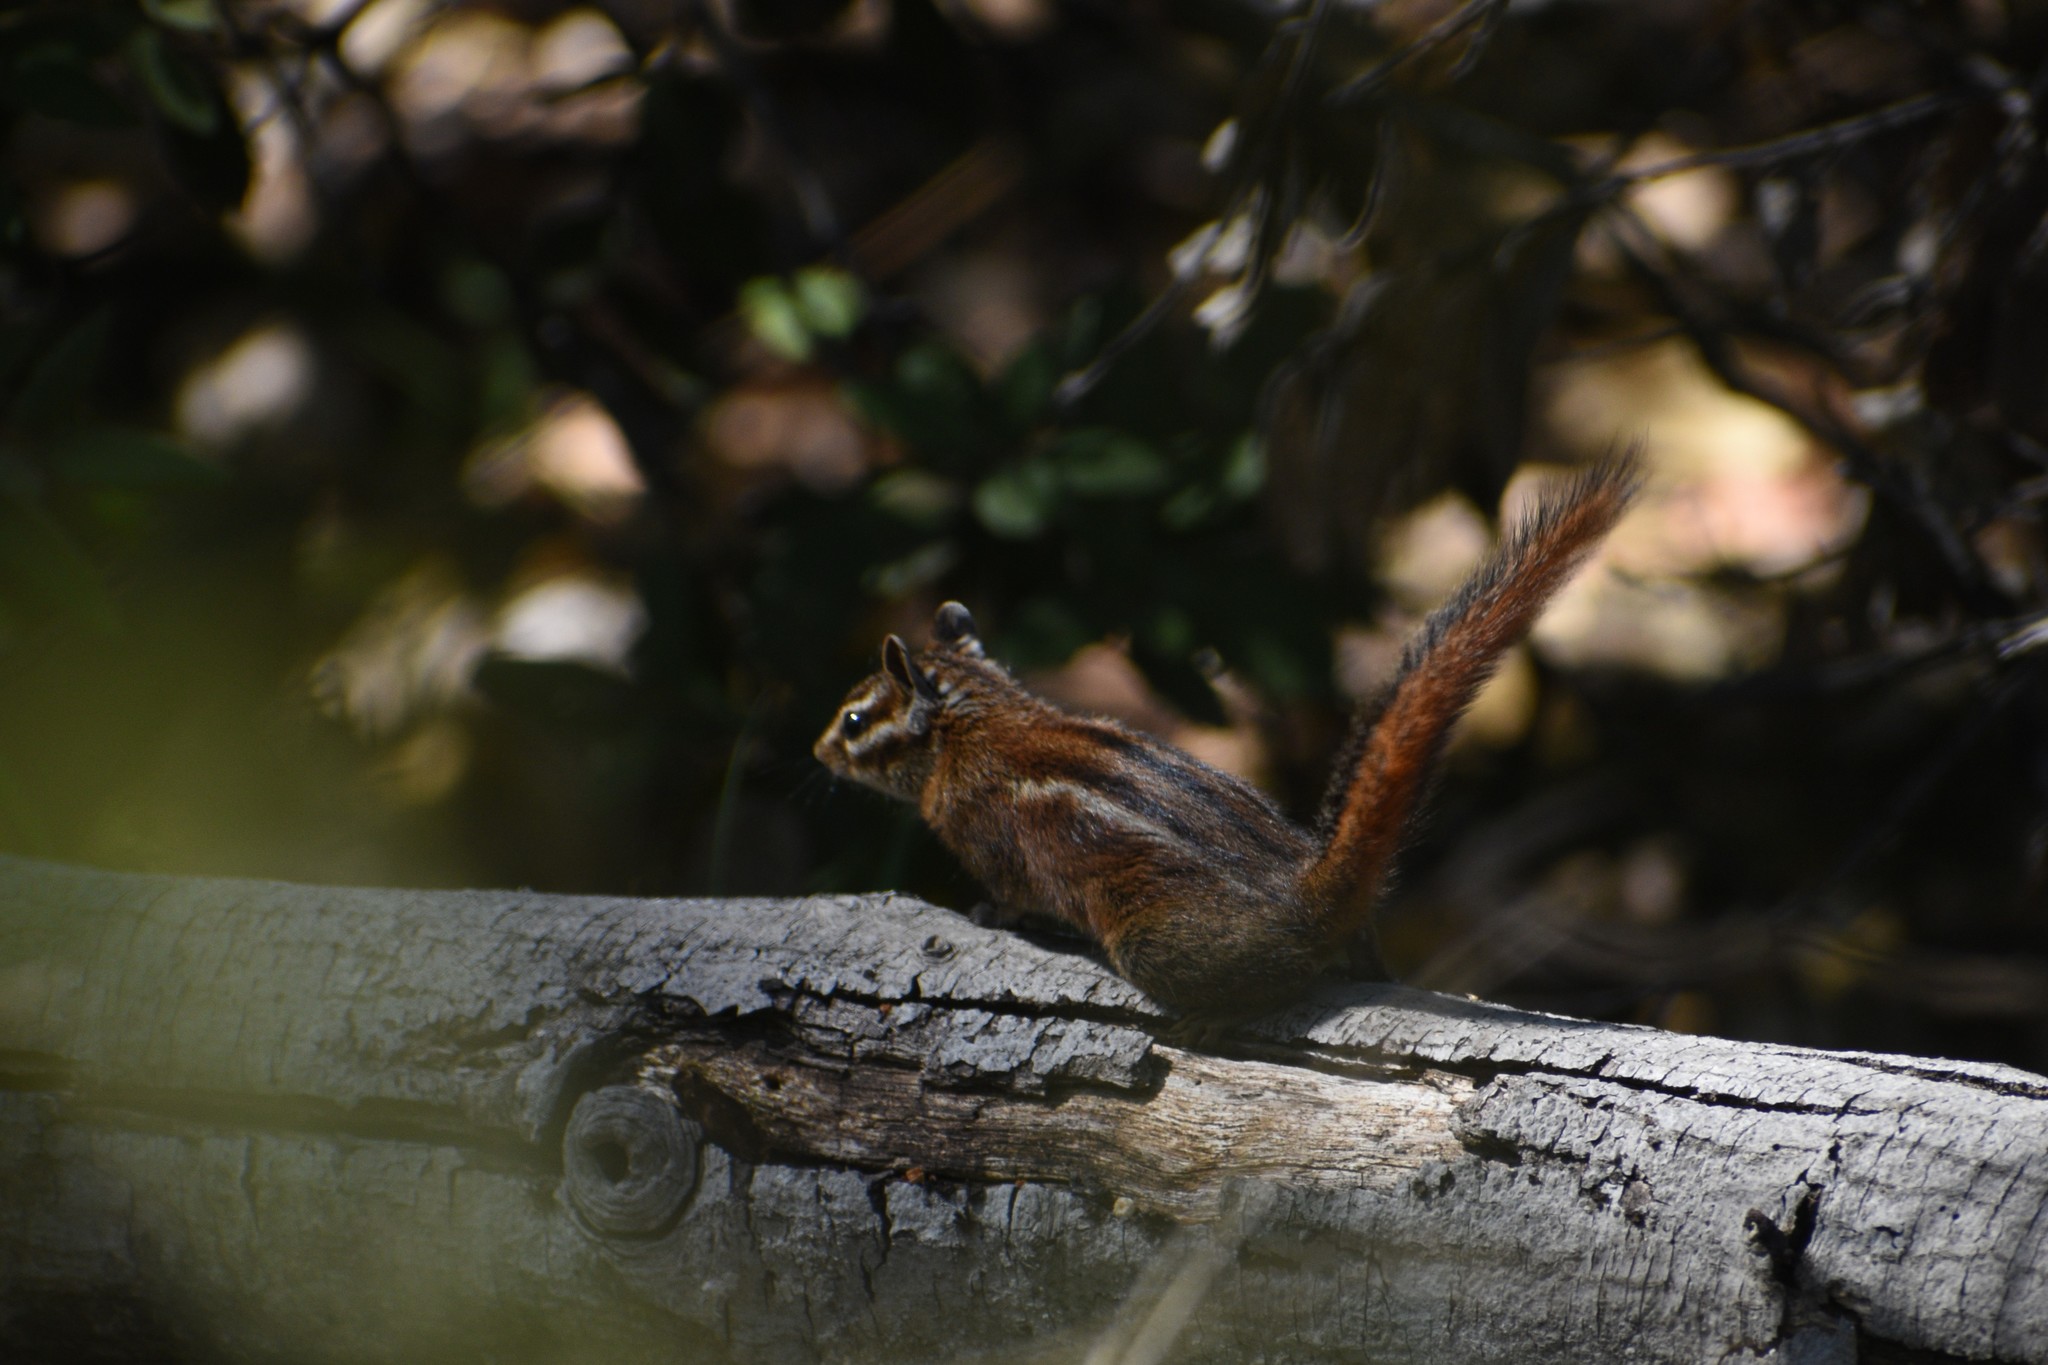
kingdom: Animalia
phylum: Chordata
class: Mammalia
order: Rodentia
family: Sciuridae
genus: Tamias
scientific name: Tamias sonomae
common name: Sonoma chipmunk
